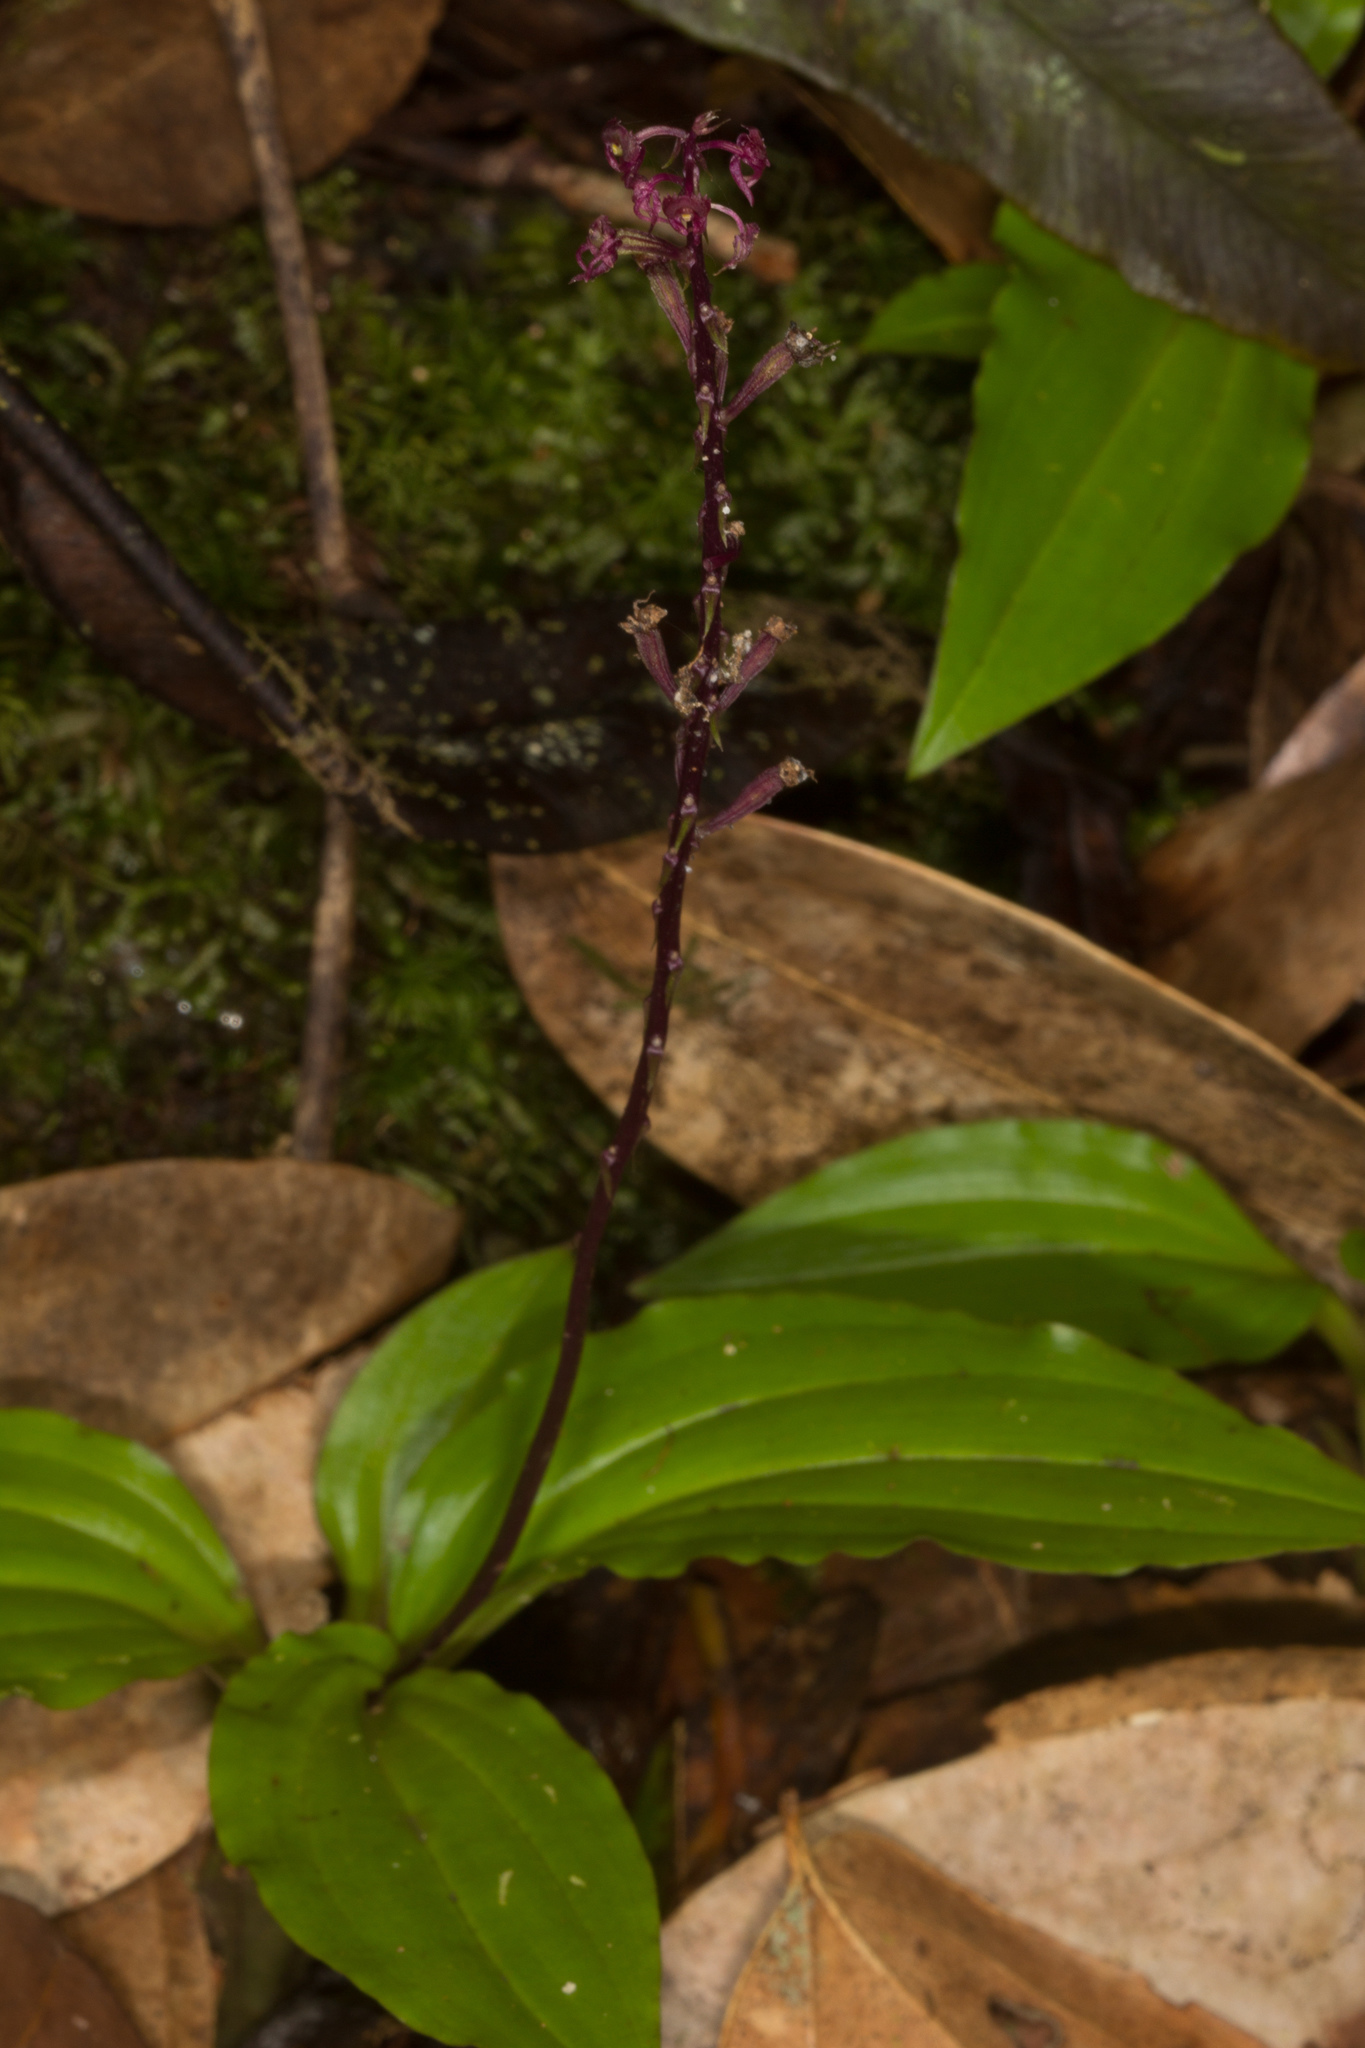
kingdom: Plantae
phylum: Tracheophyta
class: Liliopsida
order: Asparagales
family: Orchidaceae
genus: Malaxis
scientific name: Malaxis seychellarum
